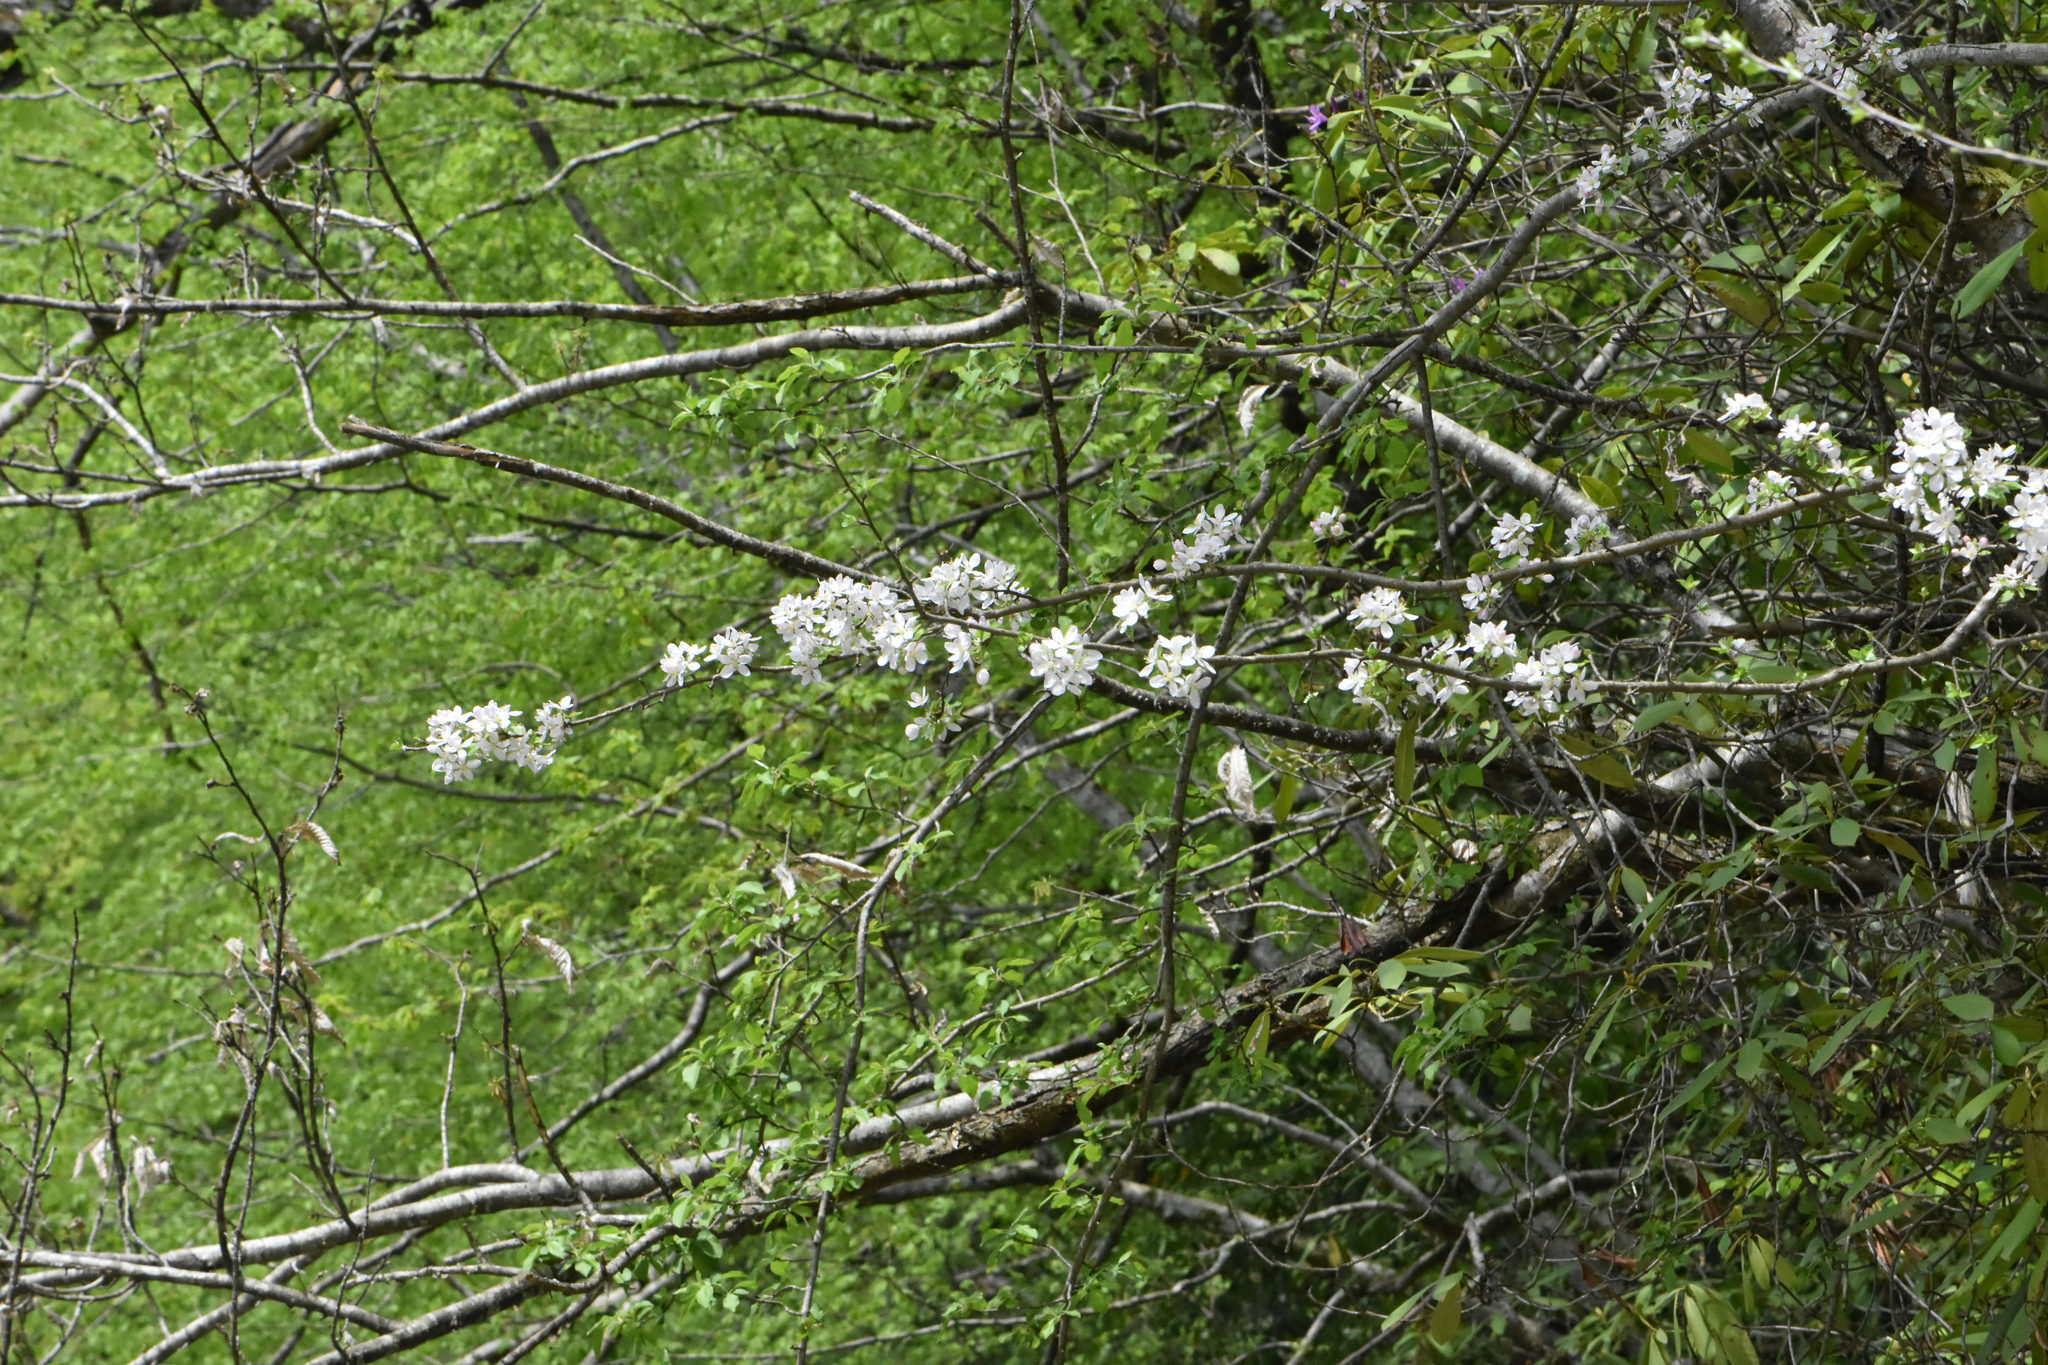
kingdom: Plantae
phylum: Tracheophyta
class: Magnoliopsida
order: Rosales
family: Rosaceae
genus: Malus
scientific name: Malus orientalis
